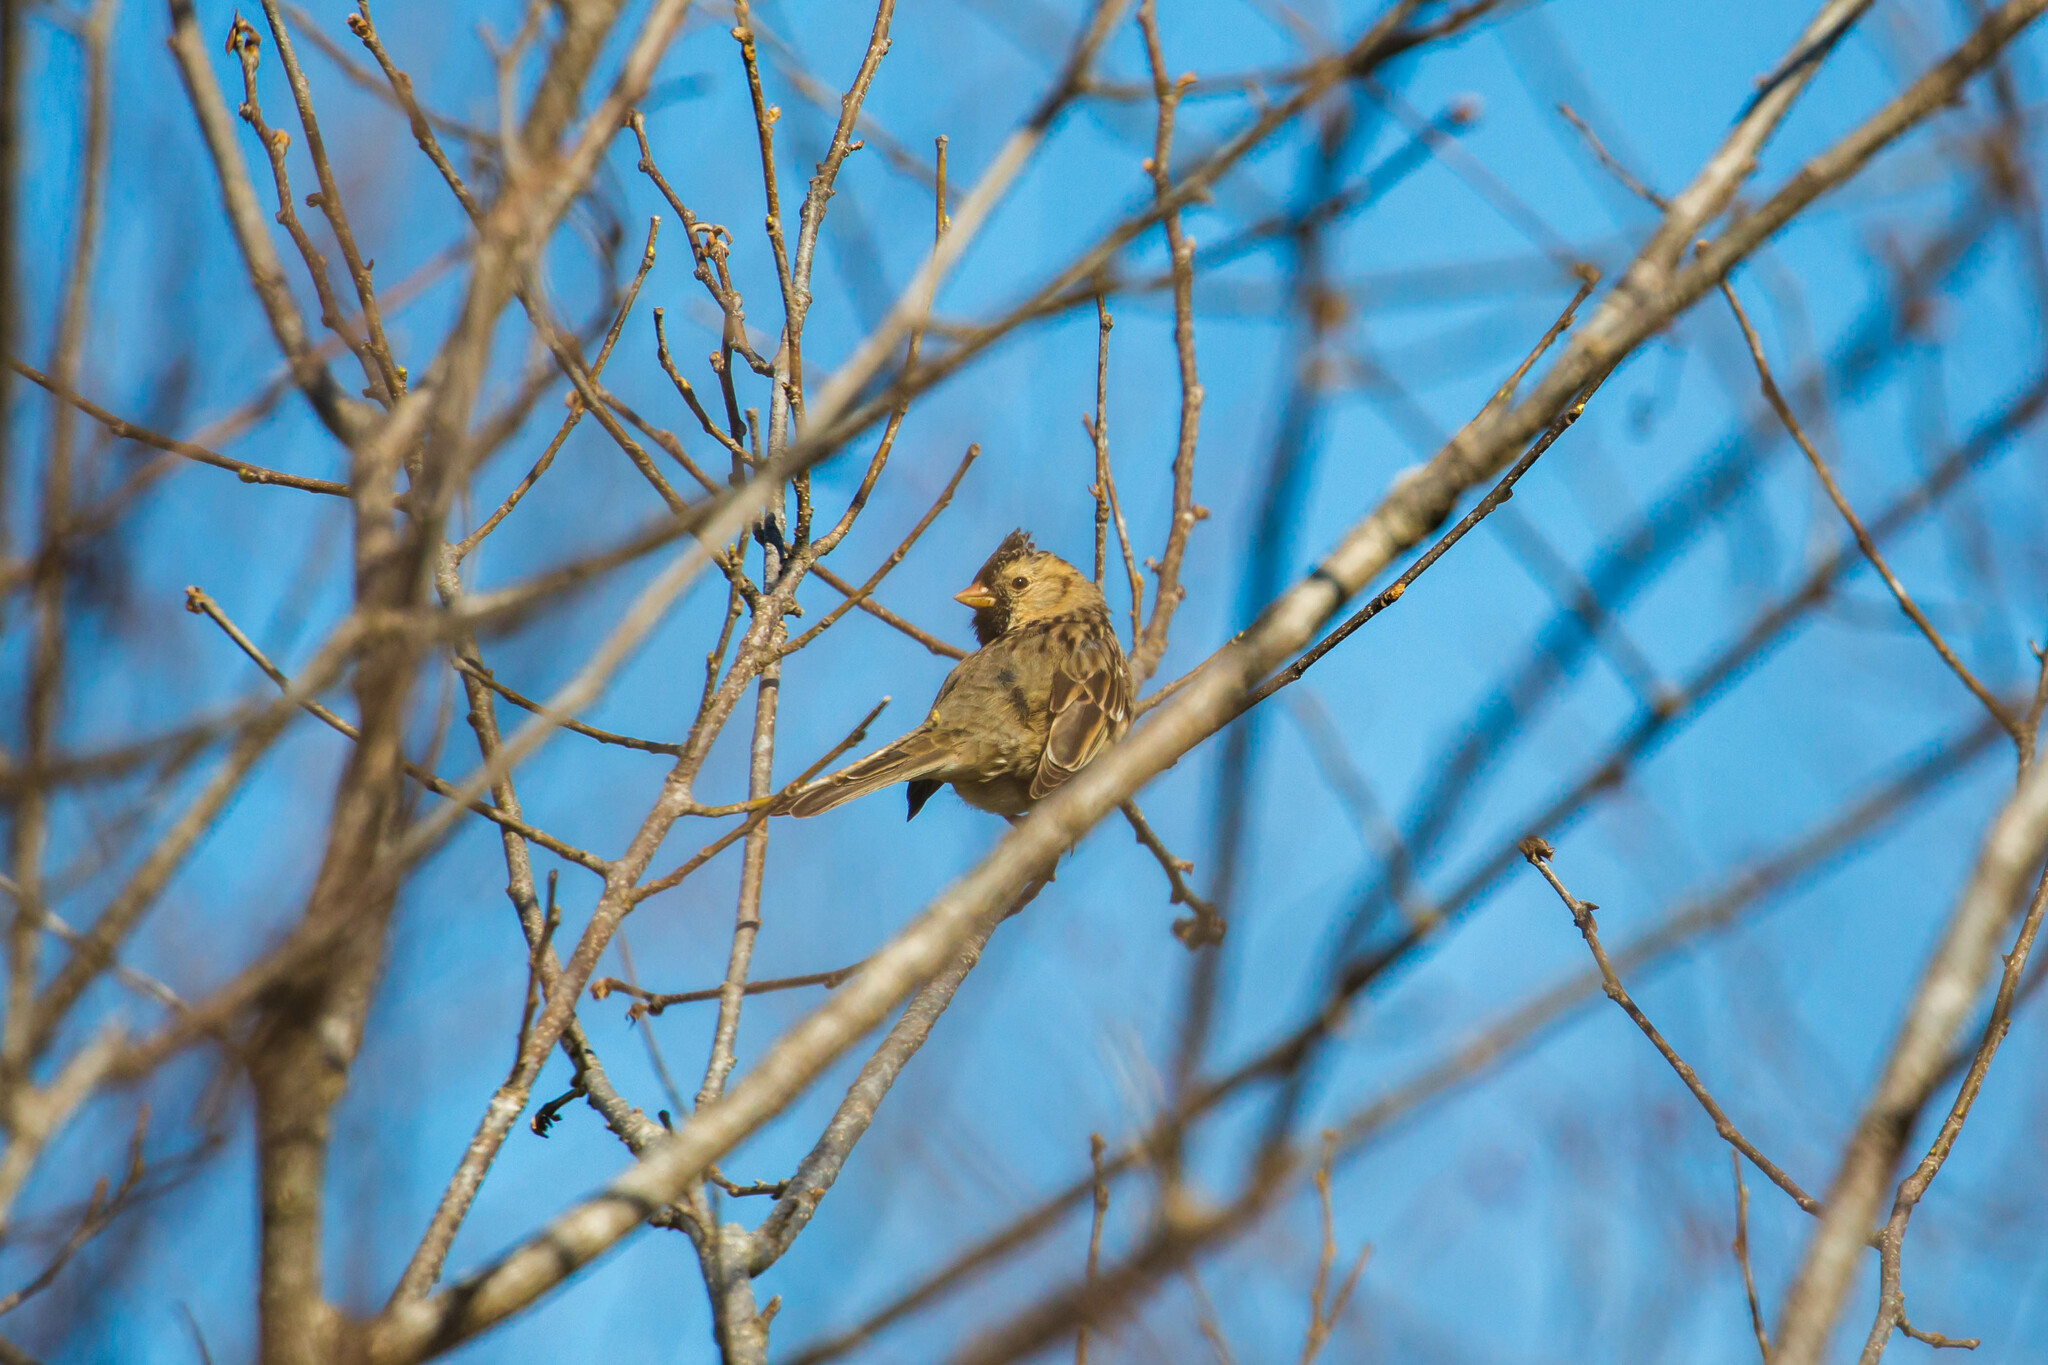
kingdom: Animalia
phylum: Chordata
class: Aves
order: Passeriformes
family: Passerellidae
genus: Zonotrichia
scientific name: Zonotrichia querula
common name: Harris's sparrow
